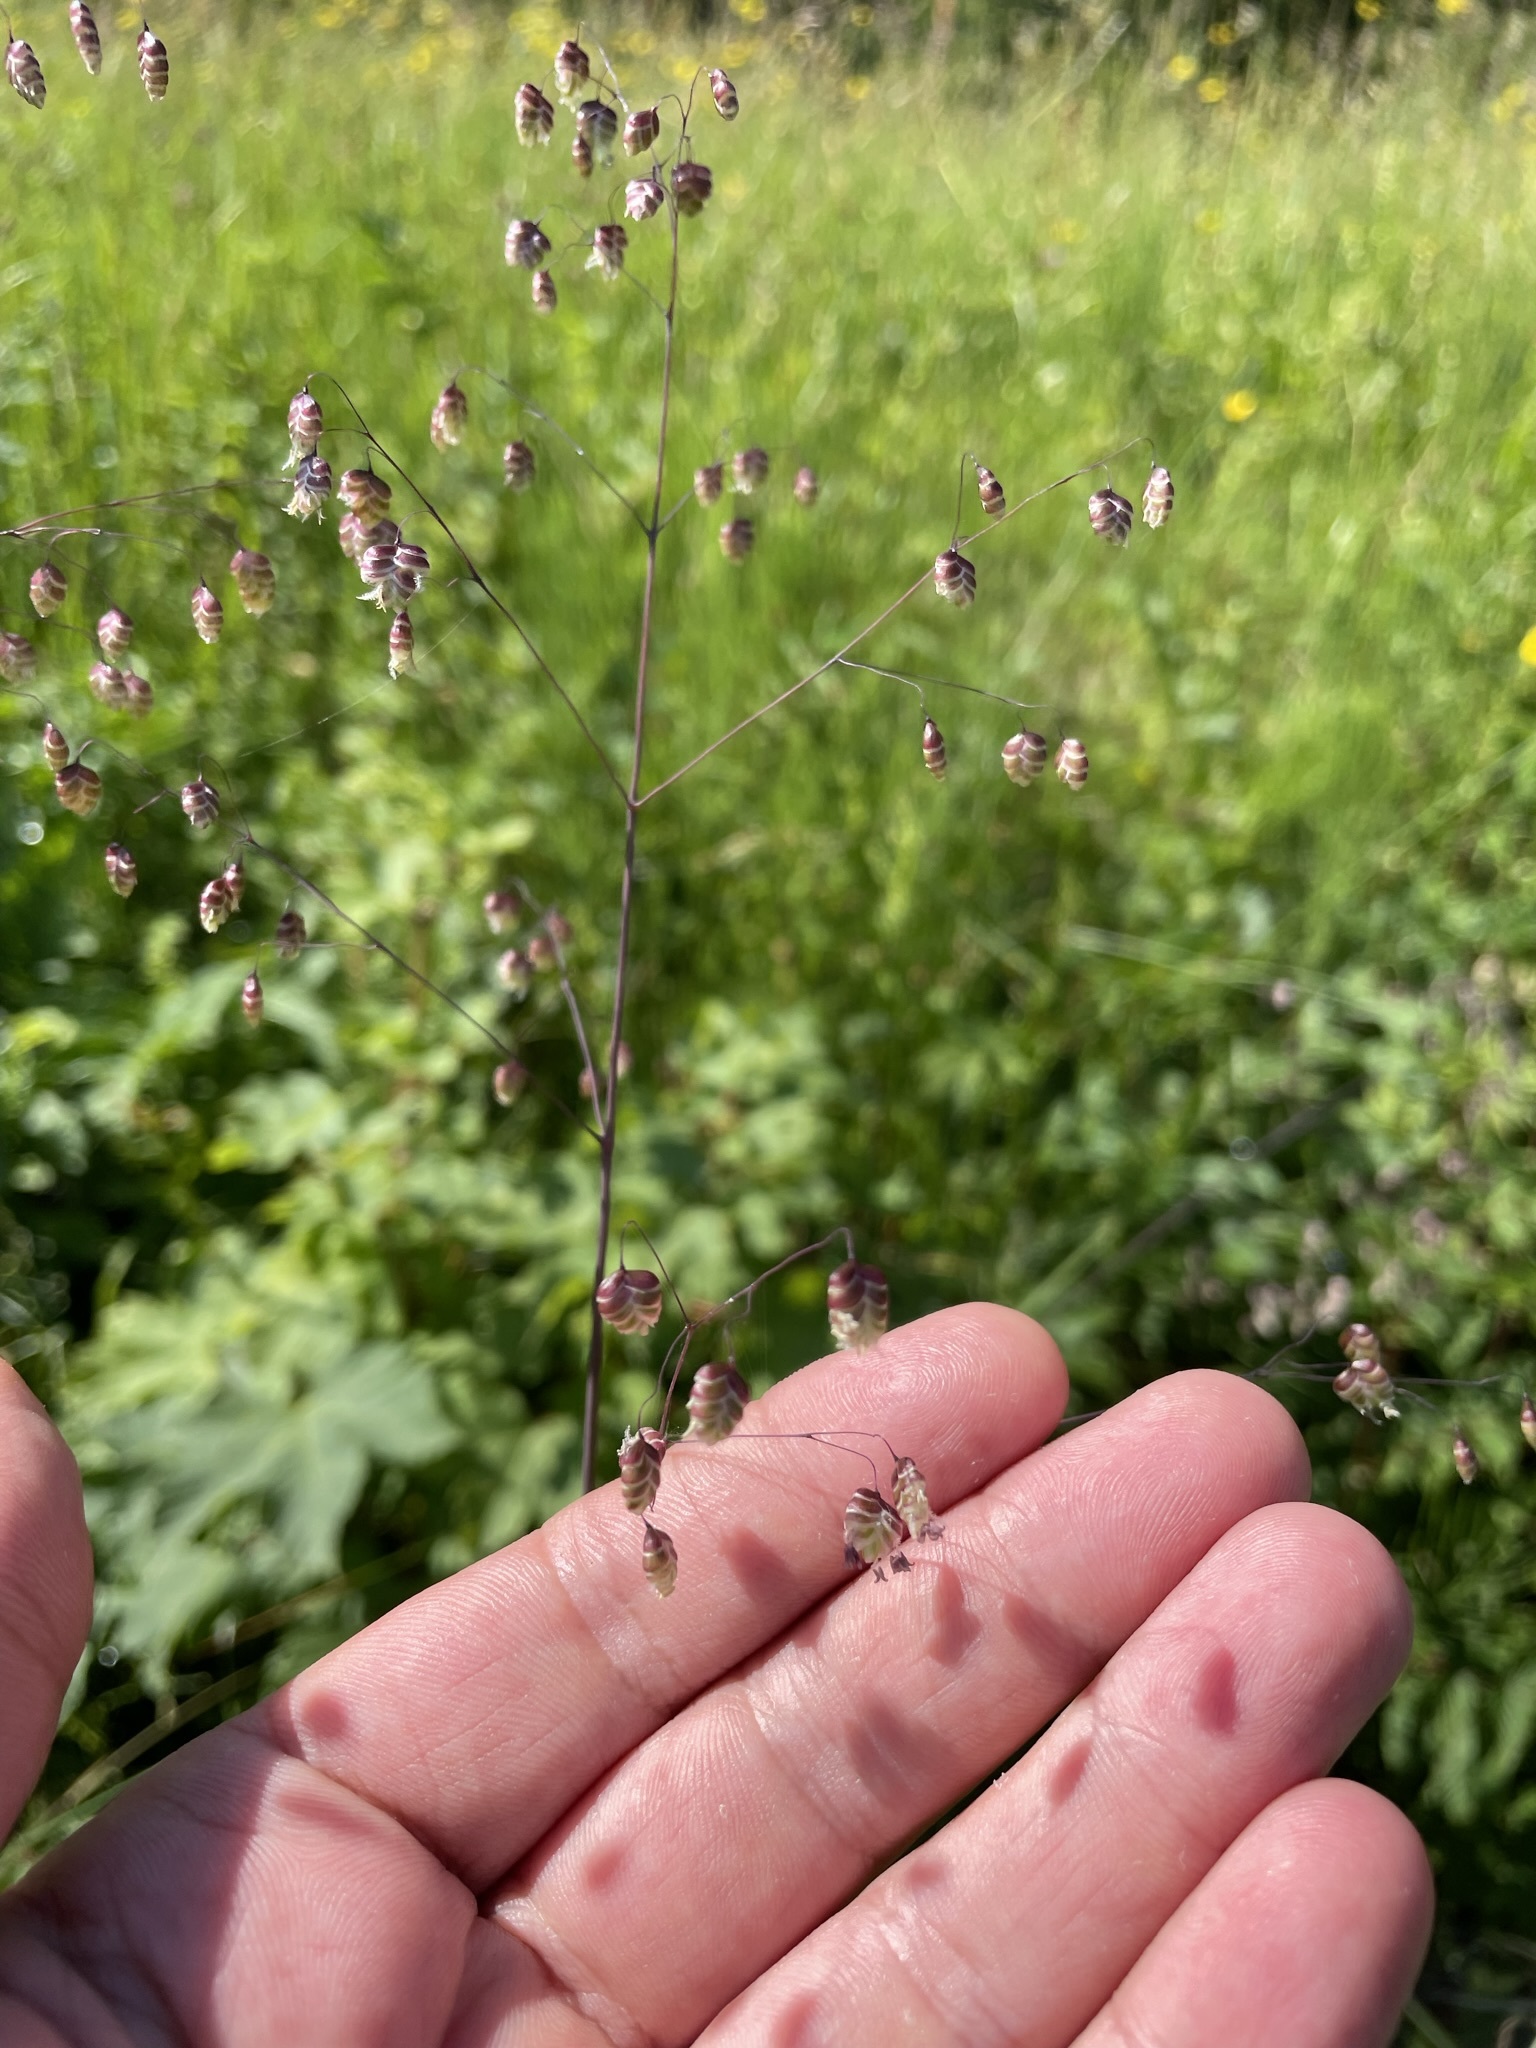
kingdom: Plantae
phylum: Tracheophyta
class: Liliopsida
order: Poales
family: Poaceae
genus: Briza
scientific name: Briza media
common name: Quaking grass
